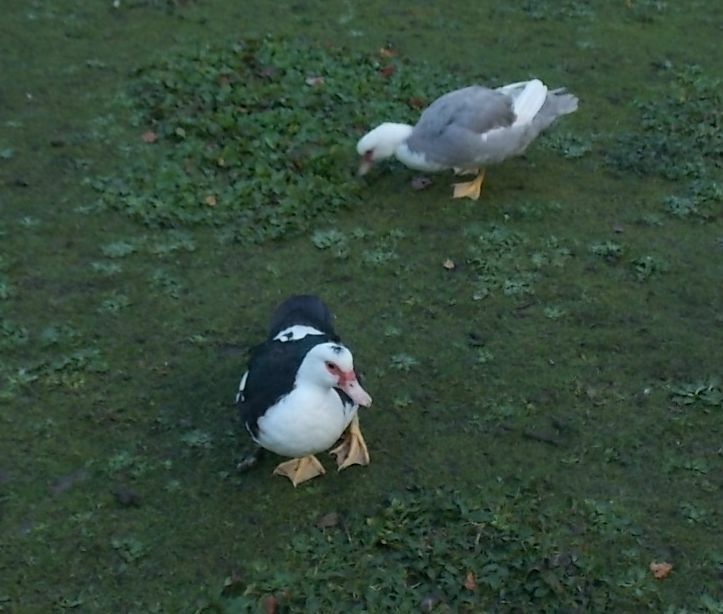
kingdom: Animalia
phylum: Chordata
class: Aves
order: Anseriformes
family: Anatidae
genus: Cairina
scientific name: Cairina moschata
